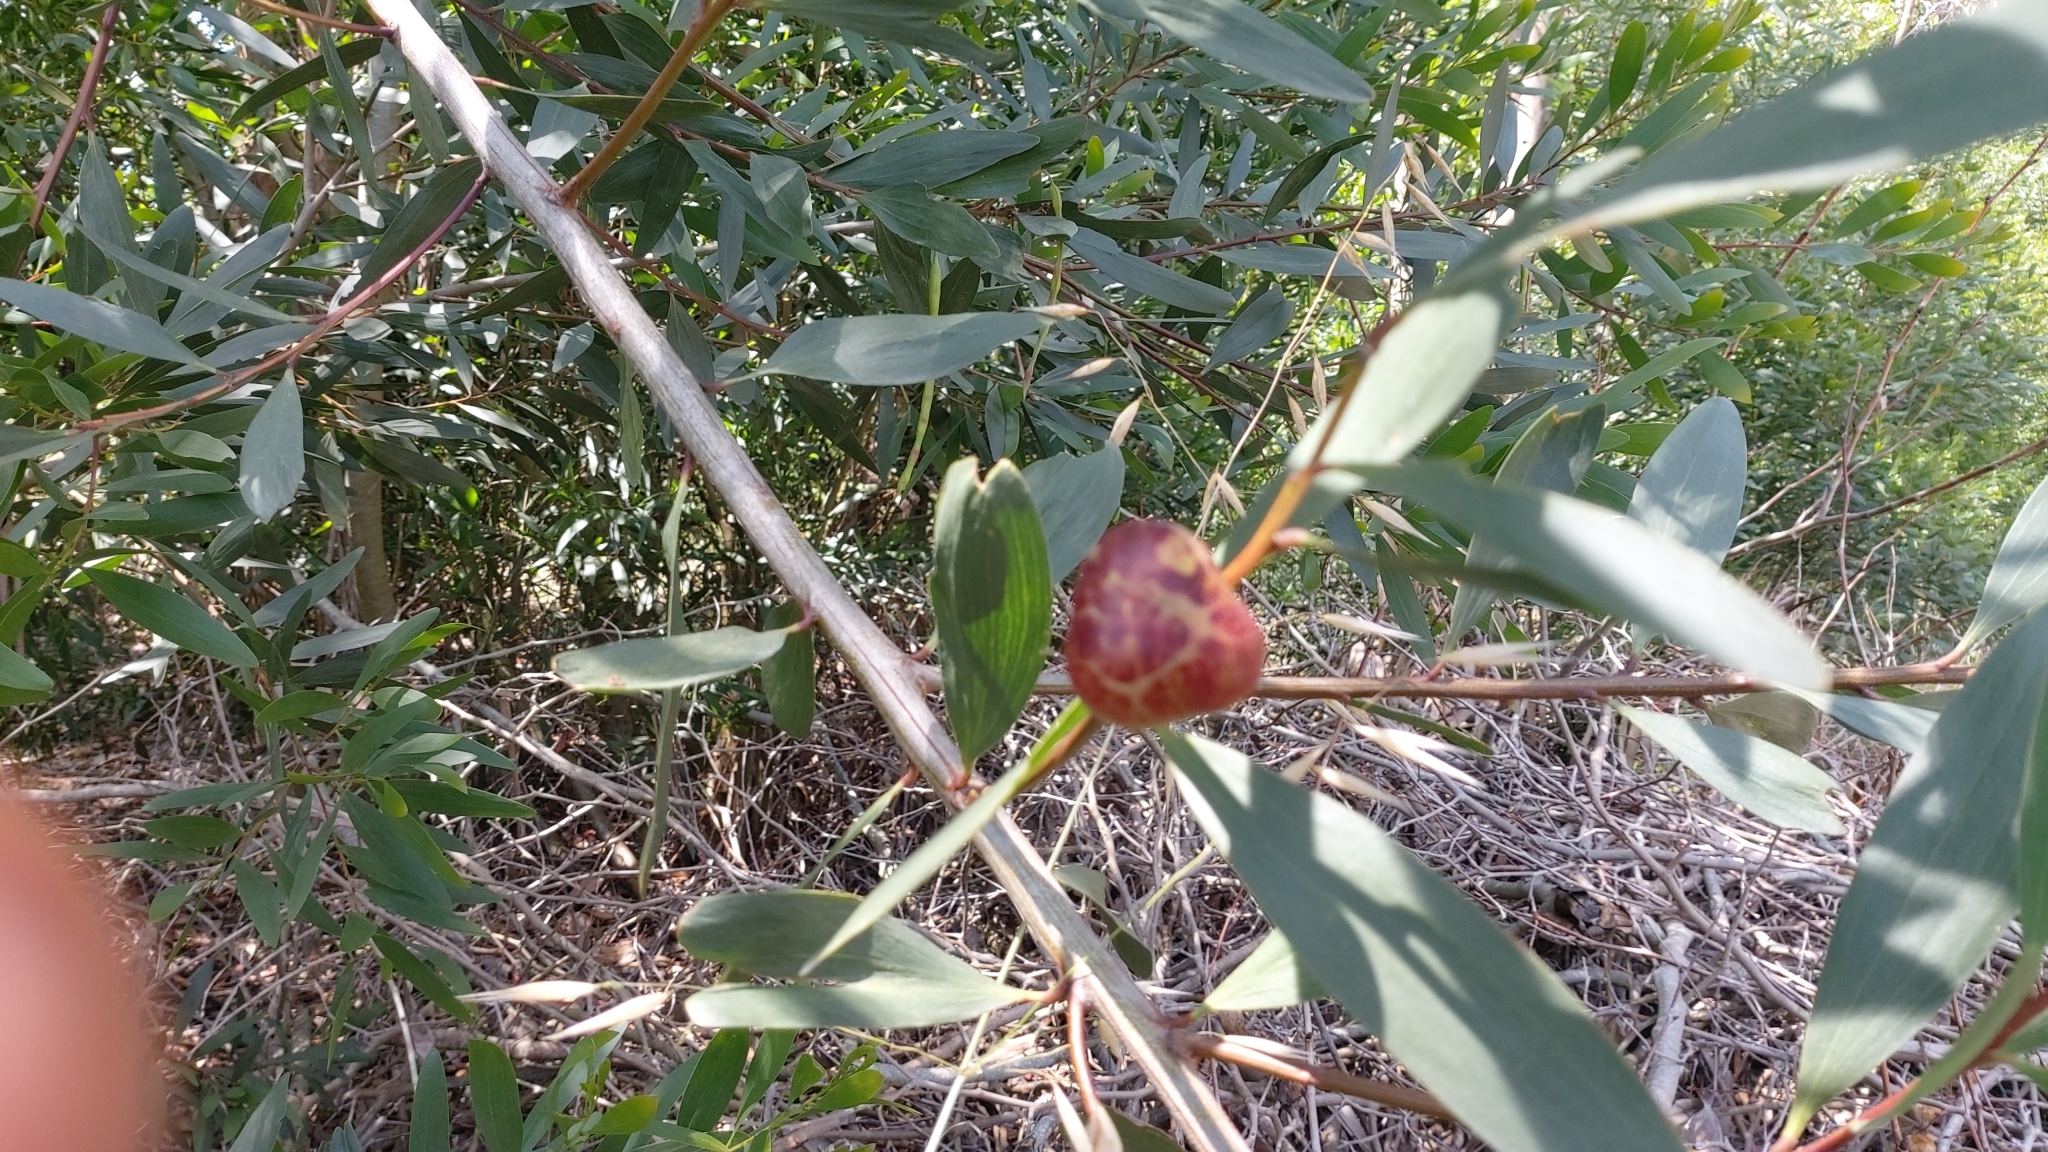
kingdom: Animalia
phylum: Arthropoda
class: Insecta
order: Hymenoptera
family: Pteromalidae
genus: Trichilogaster
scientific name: Trichilogaster acaciaelongifoliae
